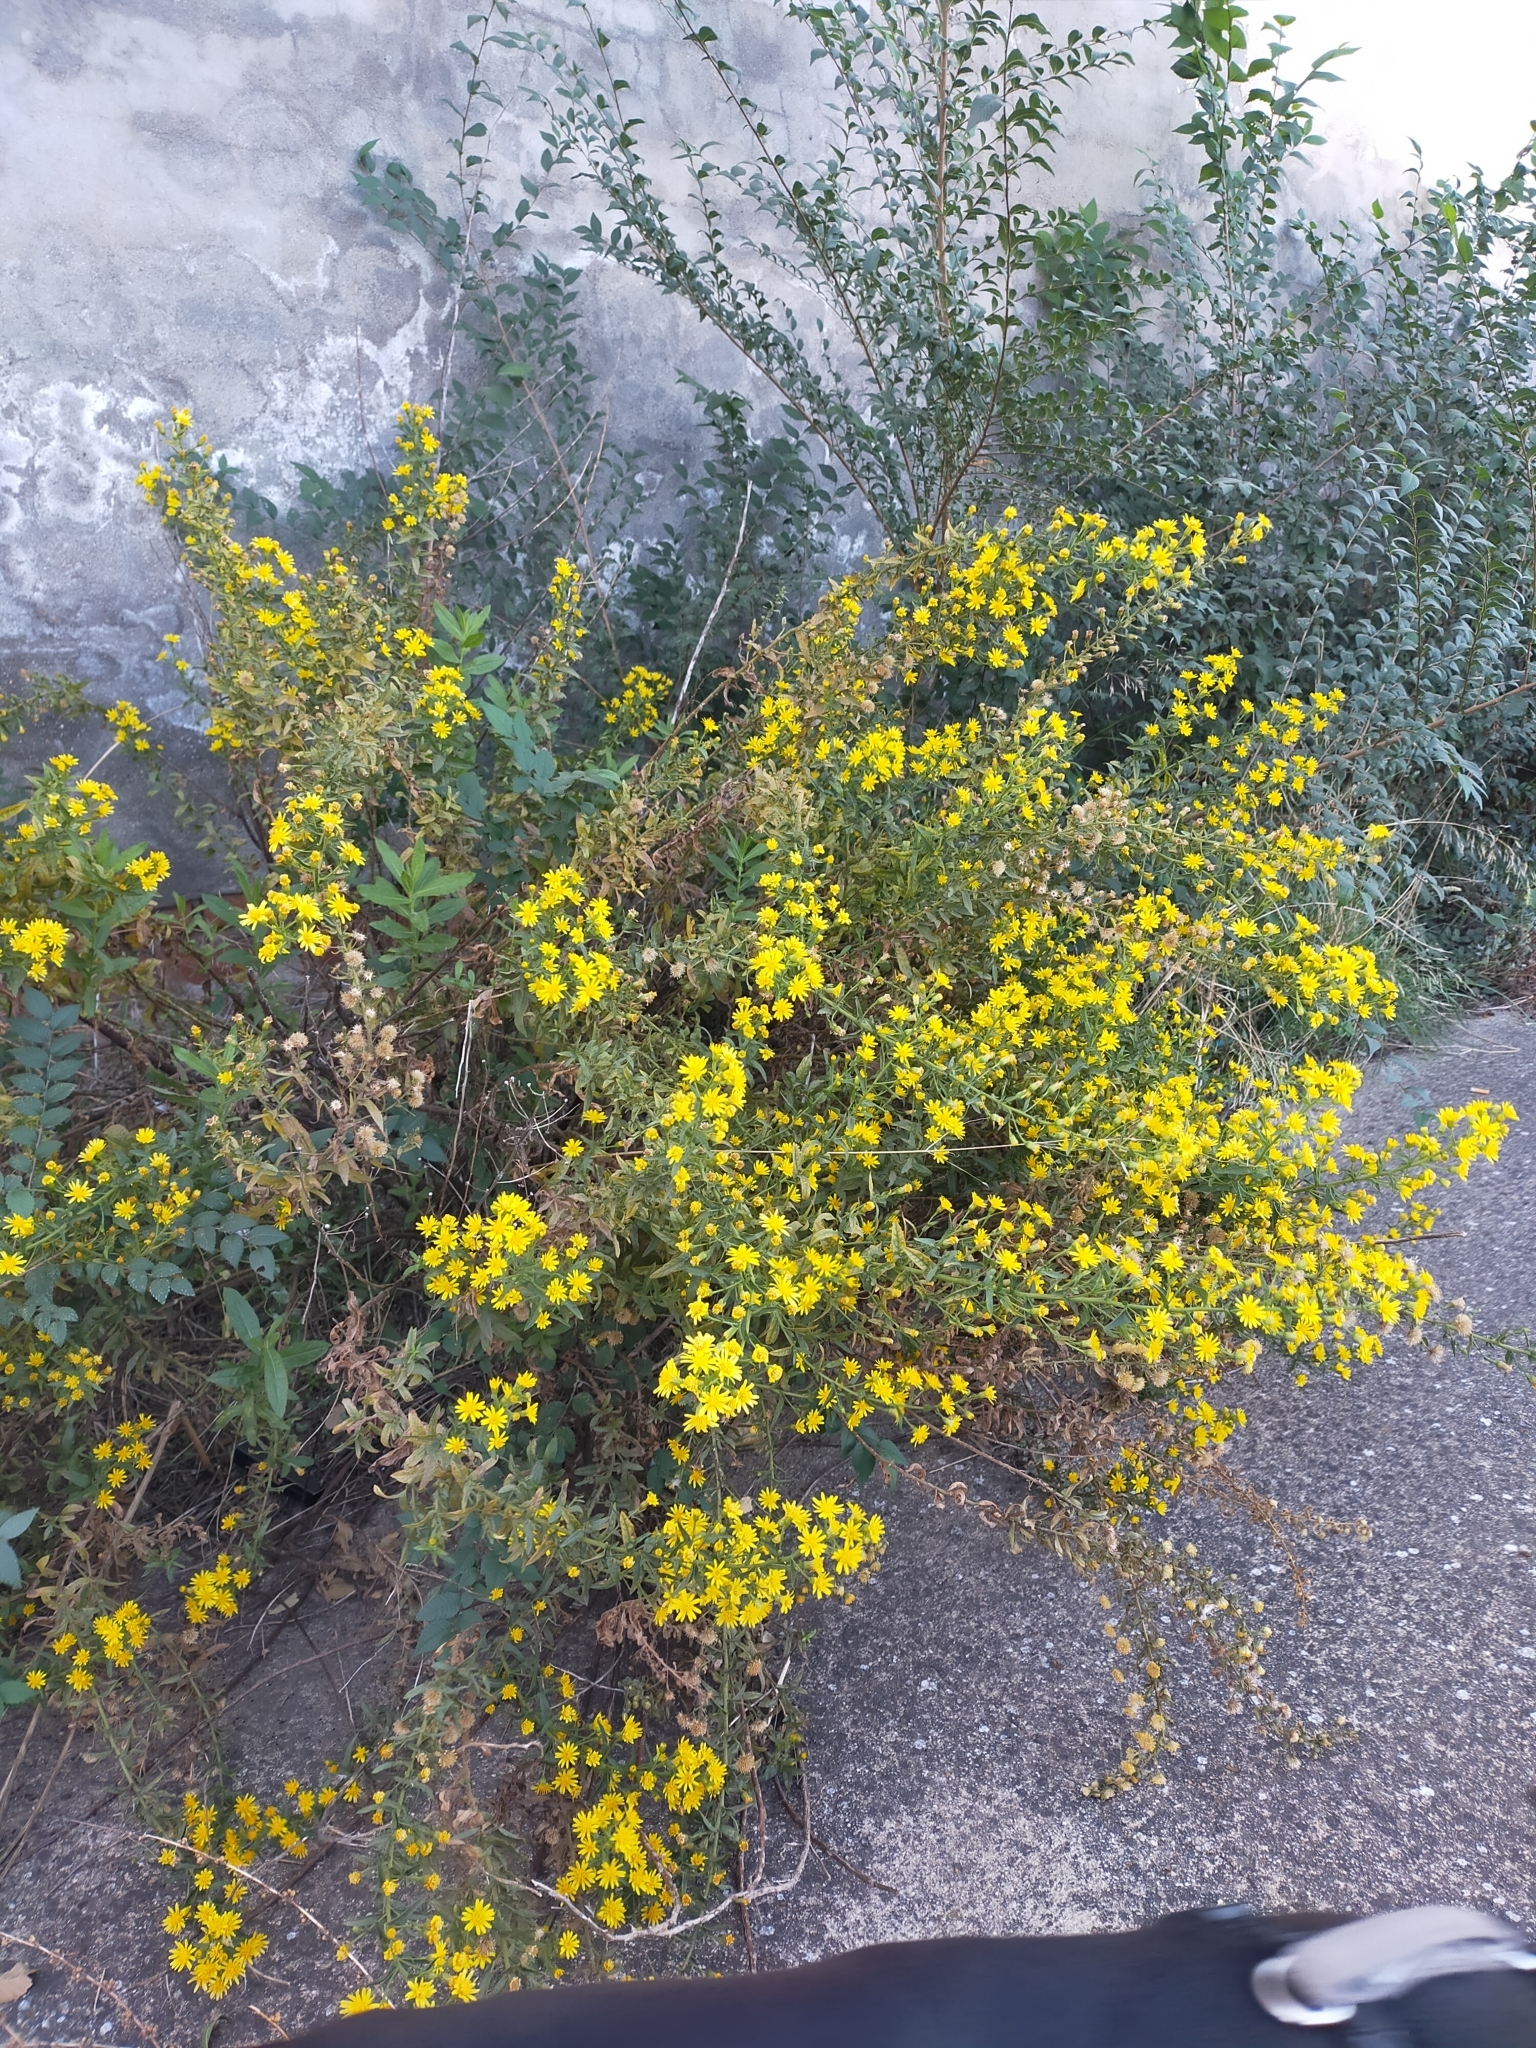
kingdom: Plantae
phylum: Tracheophyta
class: Magnoliopsida
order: Asterales
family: Asteraceae
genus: Dittrichia
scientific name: Dittrichia viscosa
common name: Woody fleabane
